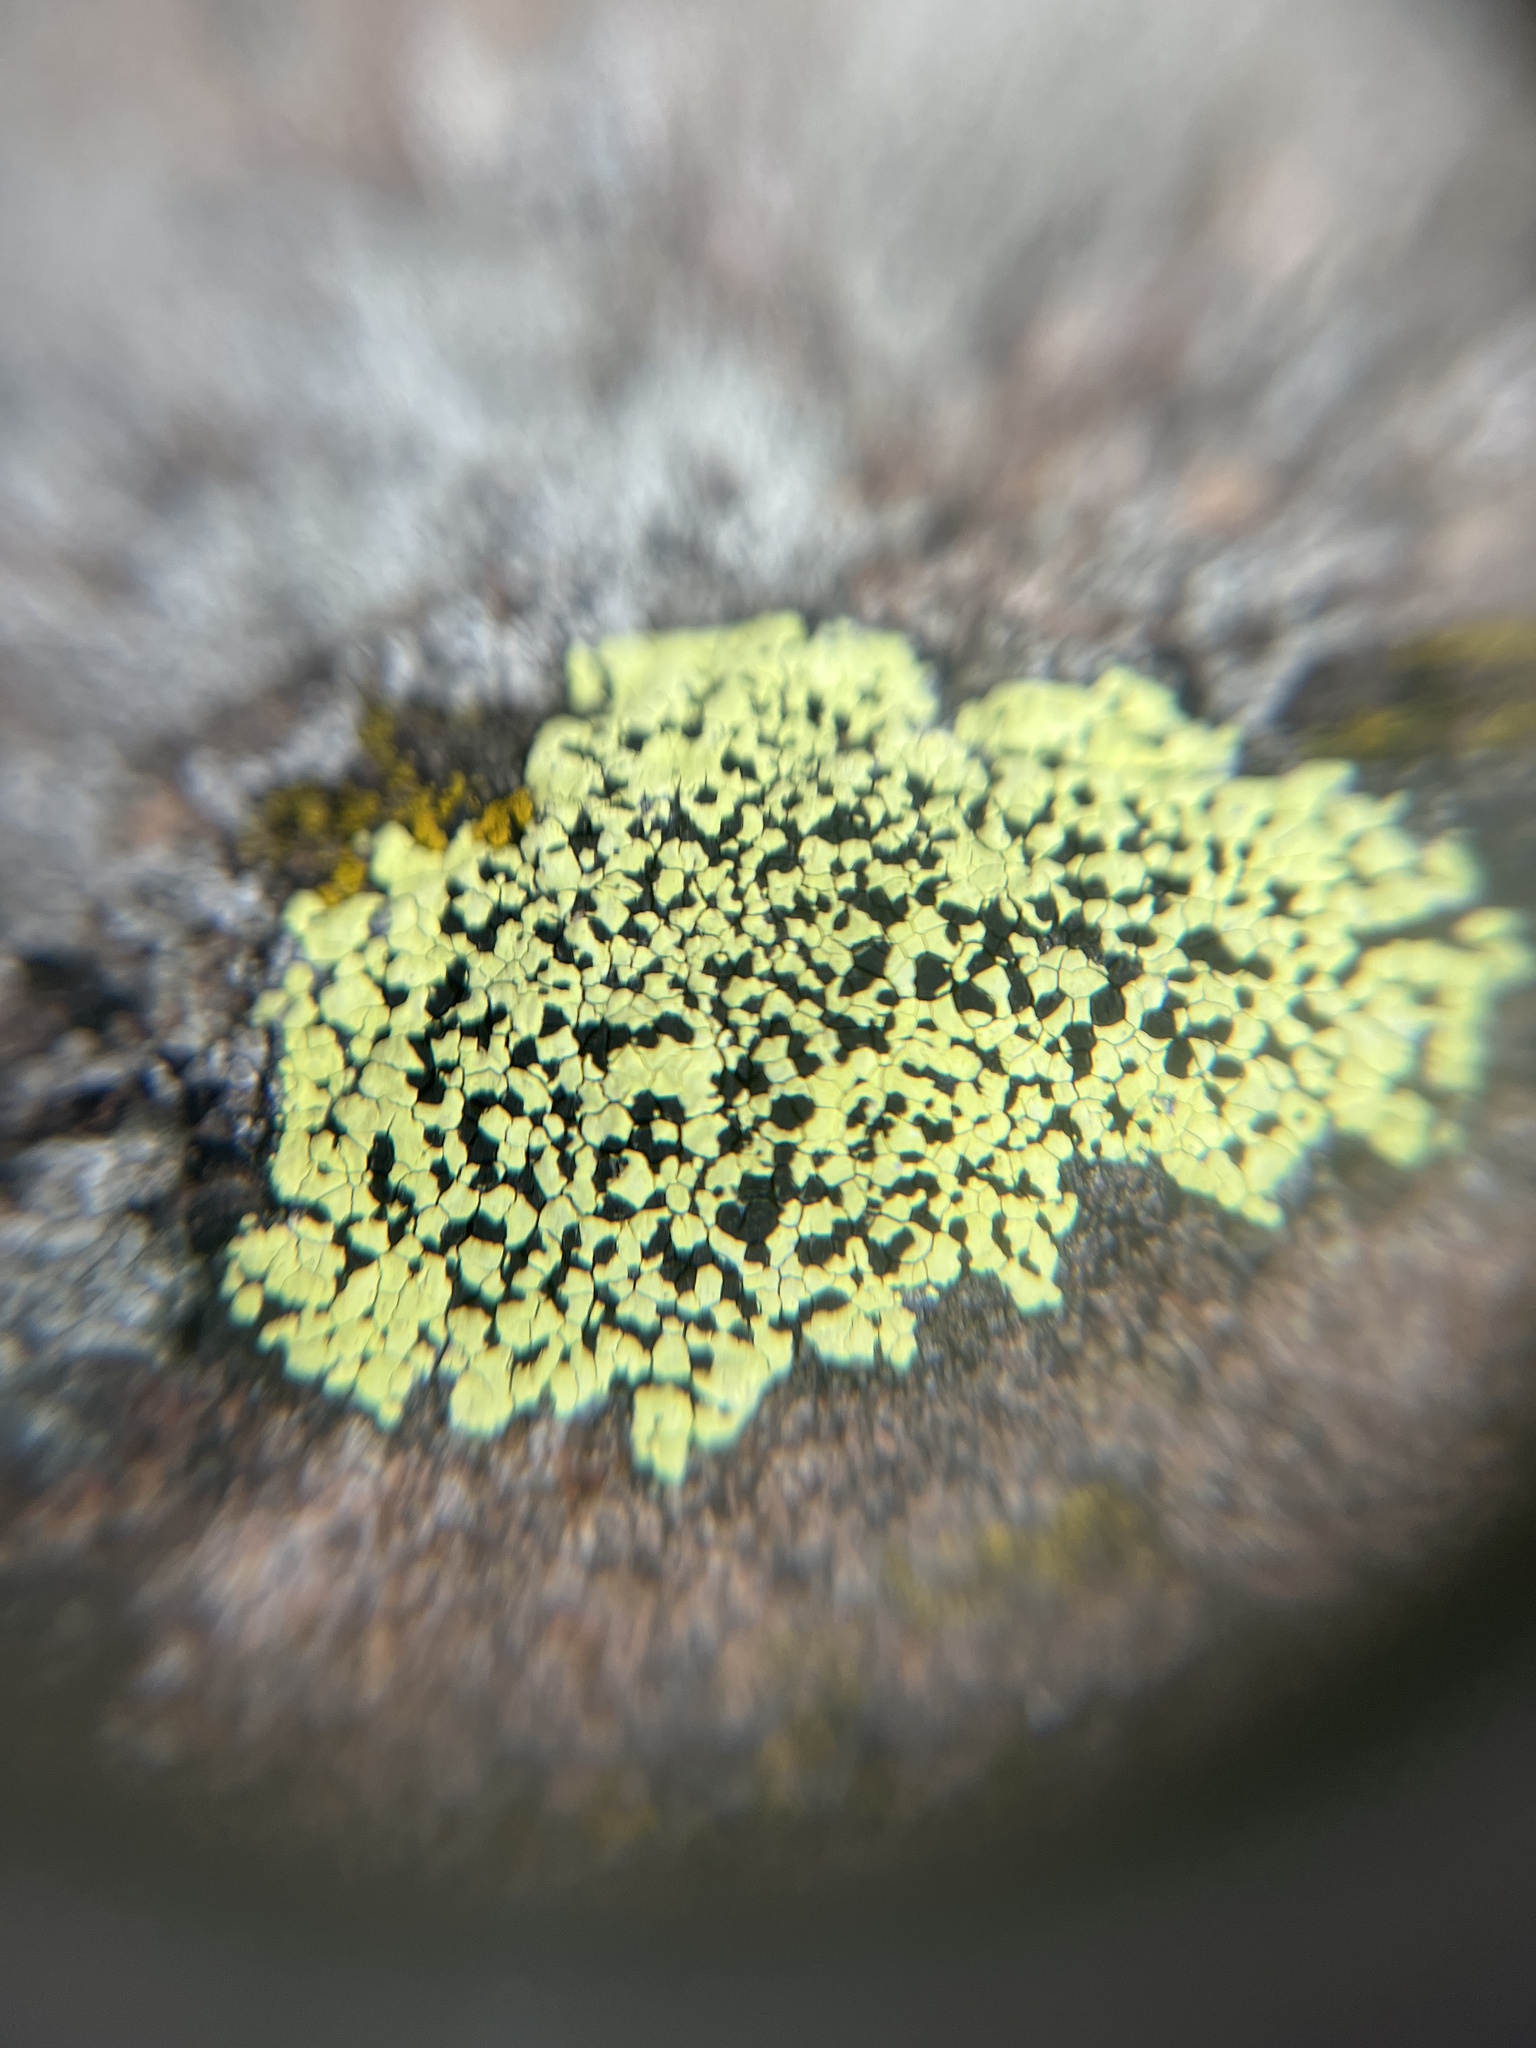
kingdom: Fungi
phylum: Ascomycota
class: Lecanoromycetes
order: Rhizocarpales
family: Rhizocarpaceae
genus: Rhizocarpon
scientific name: Rhizocarpon geographicum
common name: Yellow map lichen
